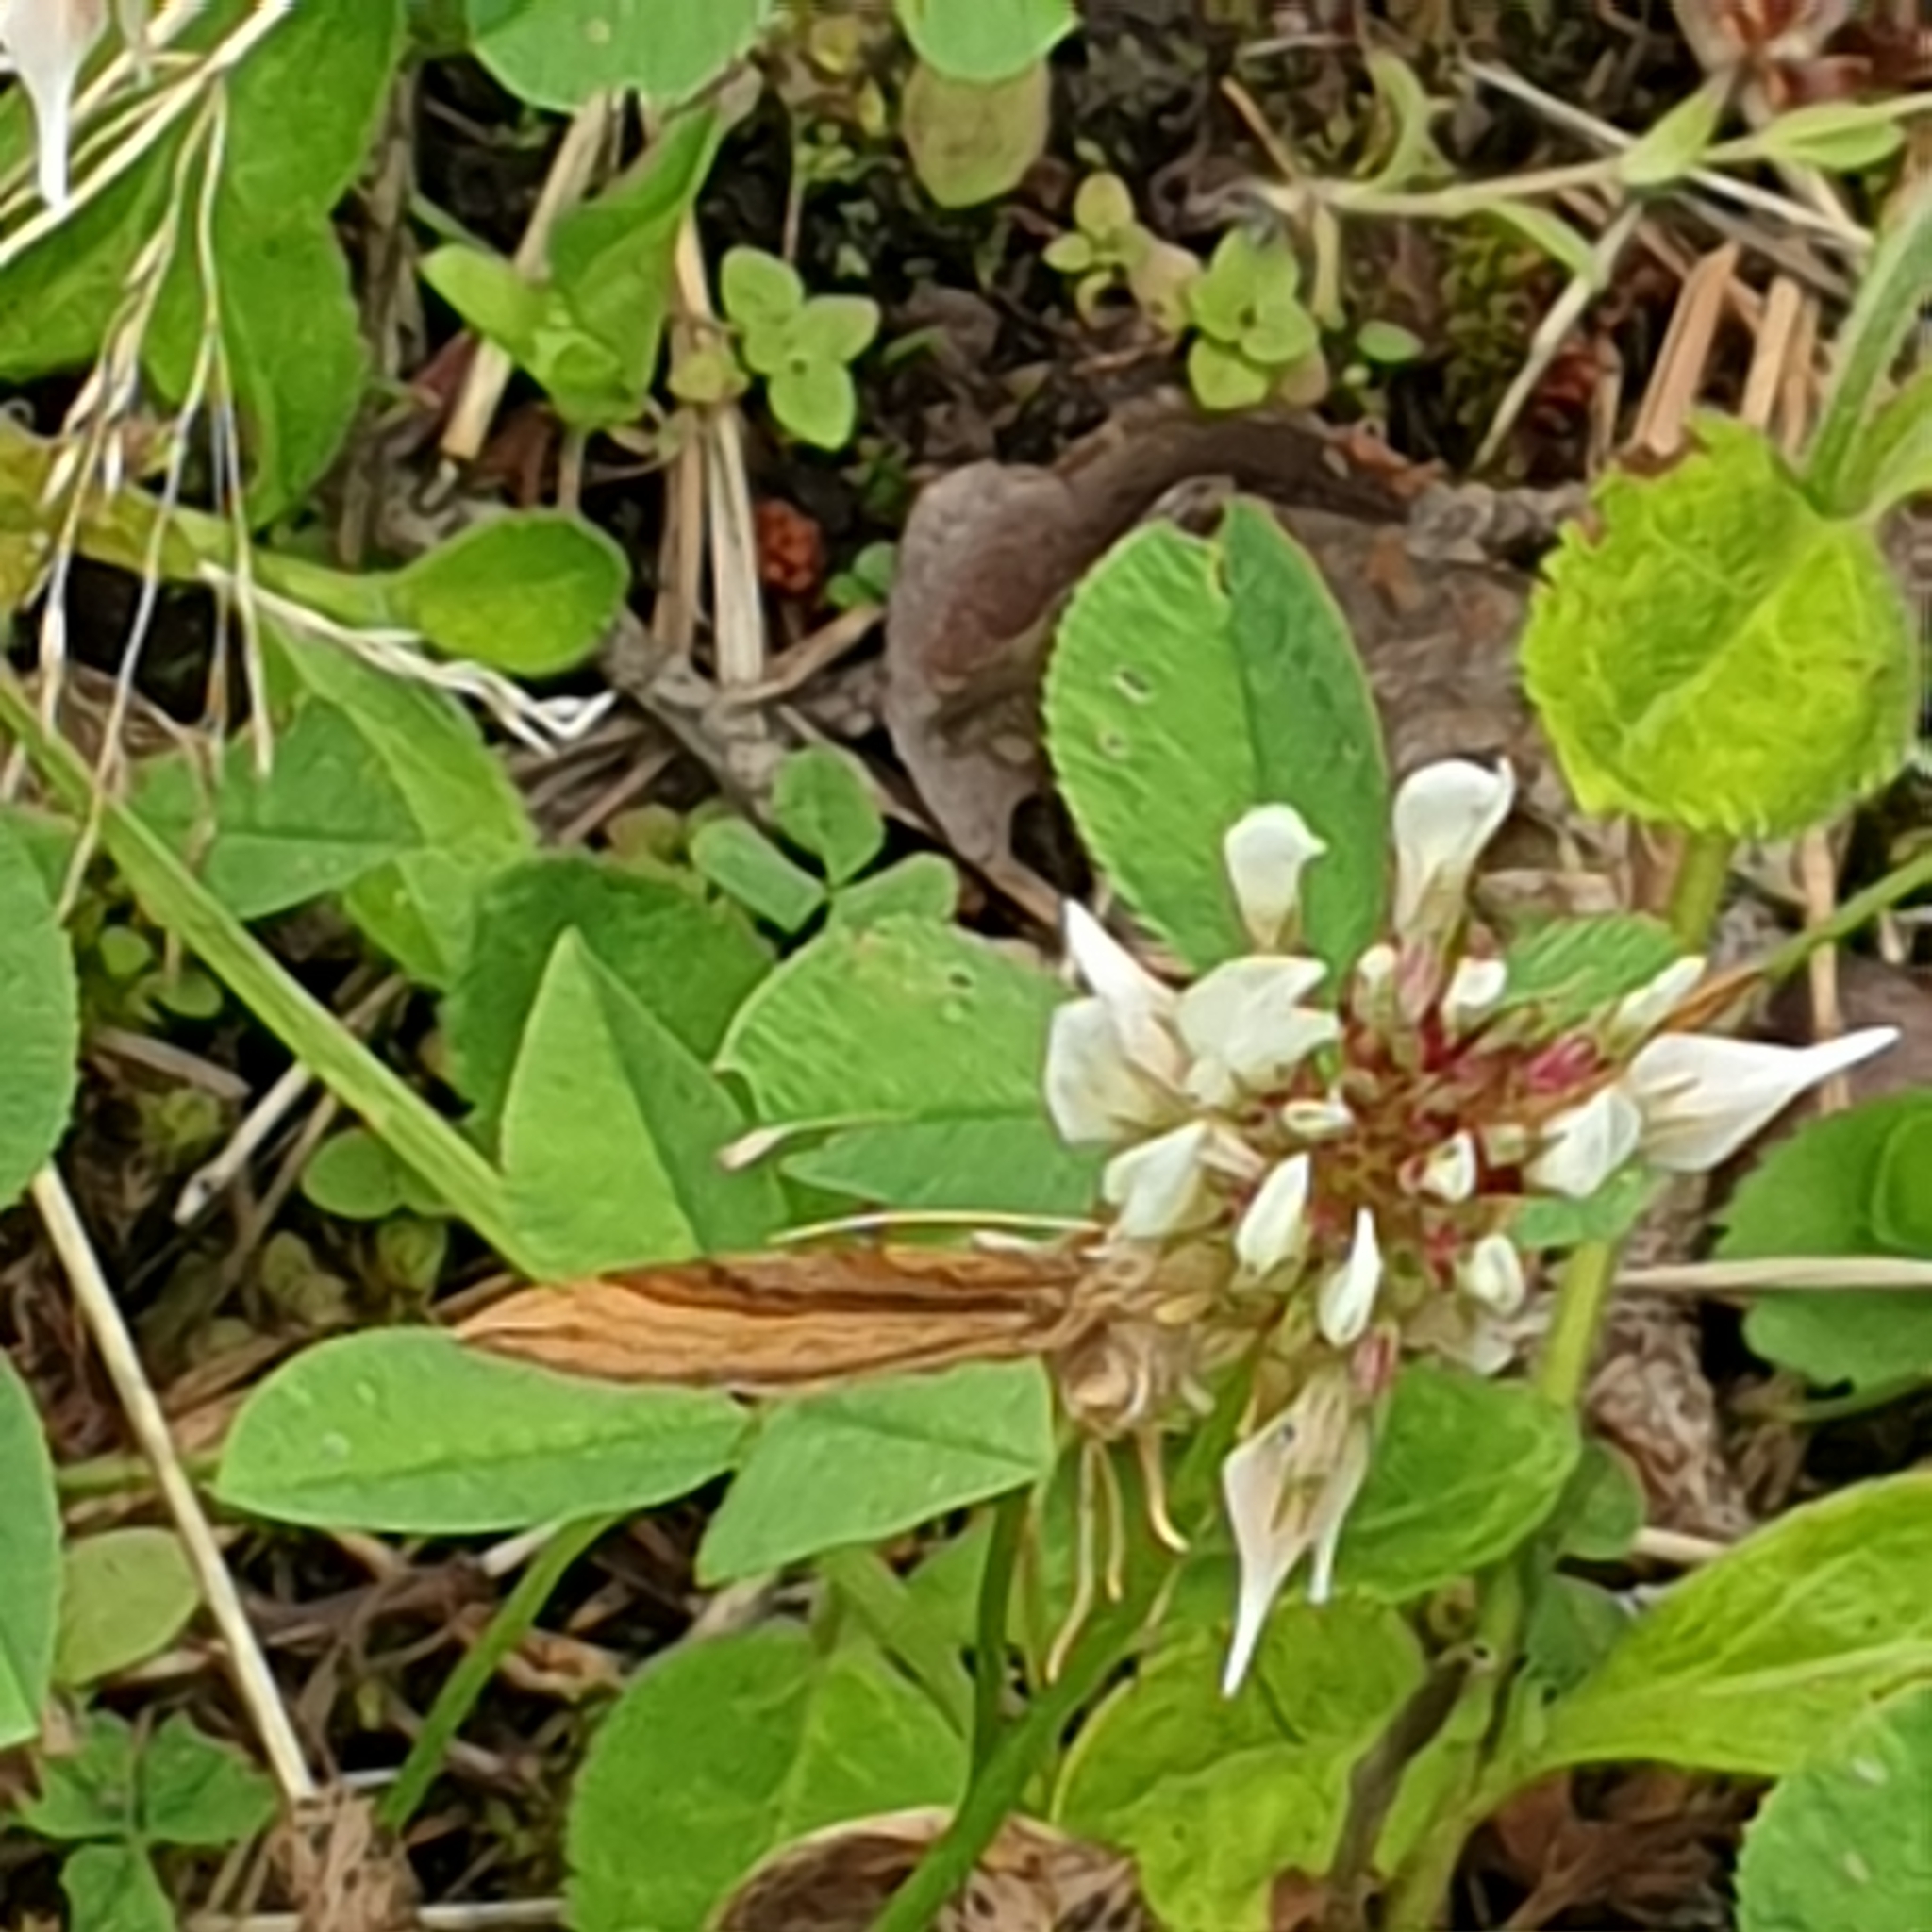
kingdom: Animalia
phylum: Arthropoda
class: Insecta
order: Lepidoptera
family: Geometridae
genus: Scotopteryx
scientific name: Scotopteryx chenopodiata
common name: Shaded broad-bar
